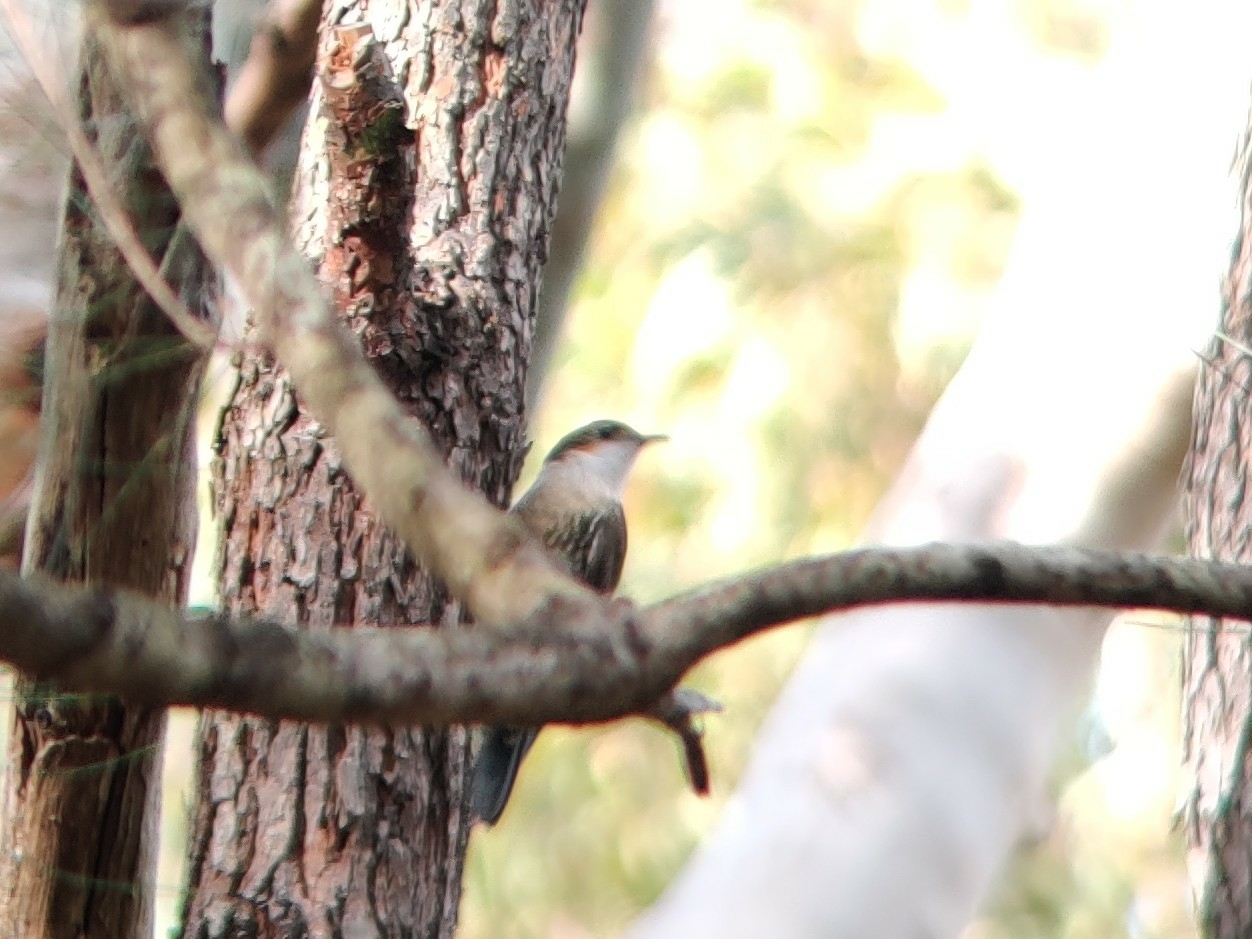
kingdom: Animalia
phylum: Chordata
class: Aves
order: Passeriformes
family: Climacteridae
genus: Cormobates
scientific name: Cormobates leucophaea
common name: White-throated treecreeper
